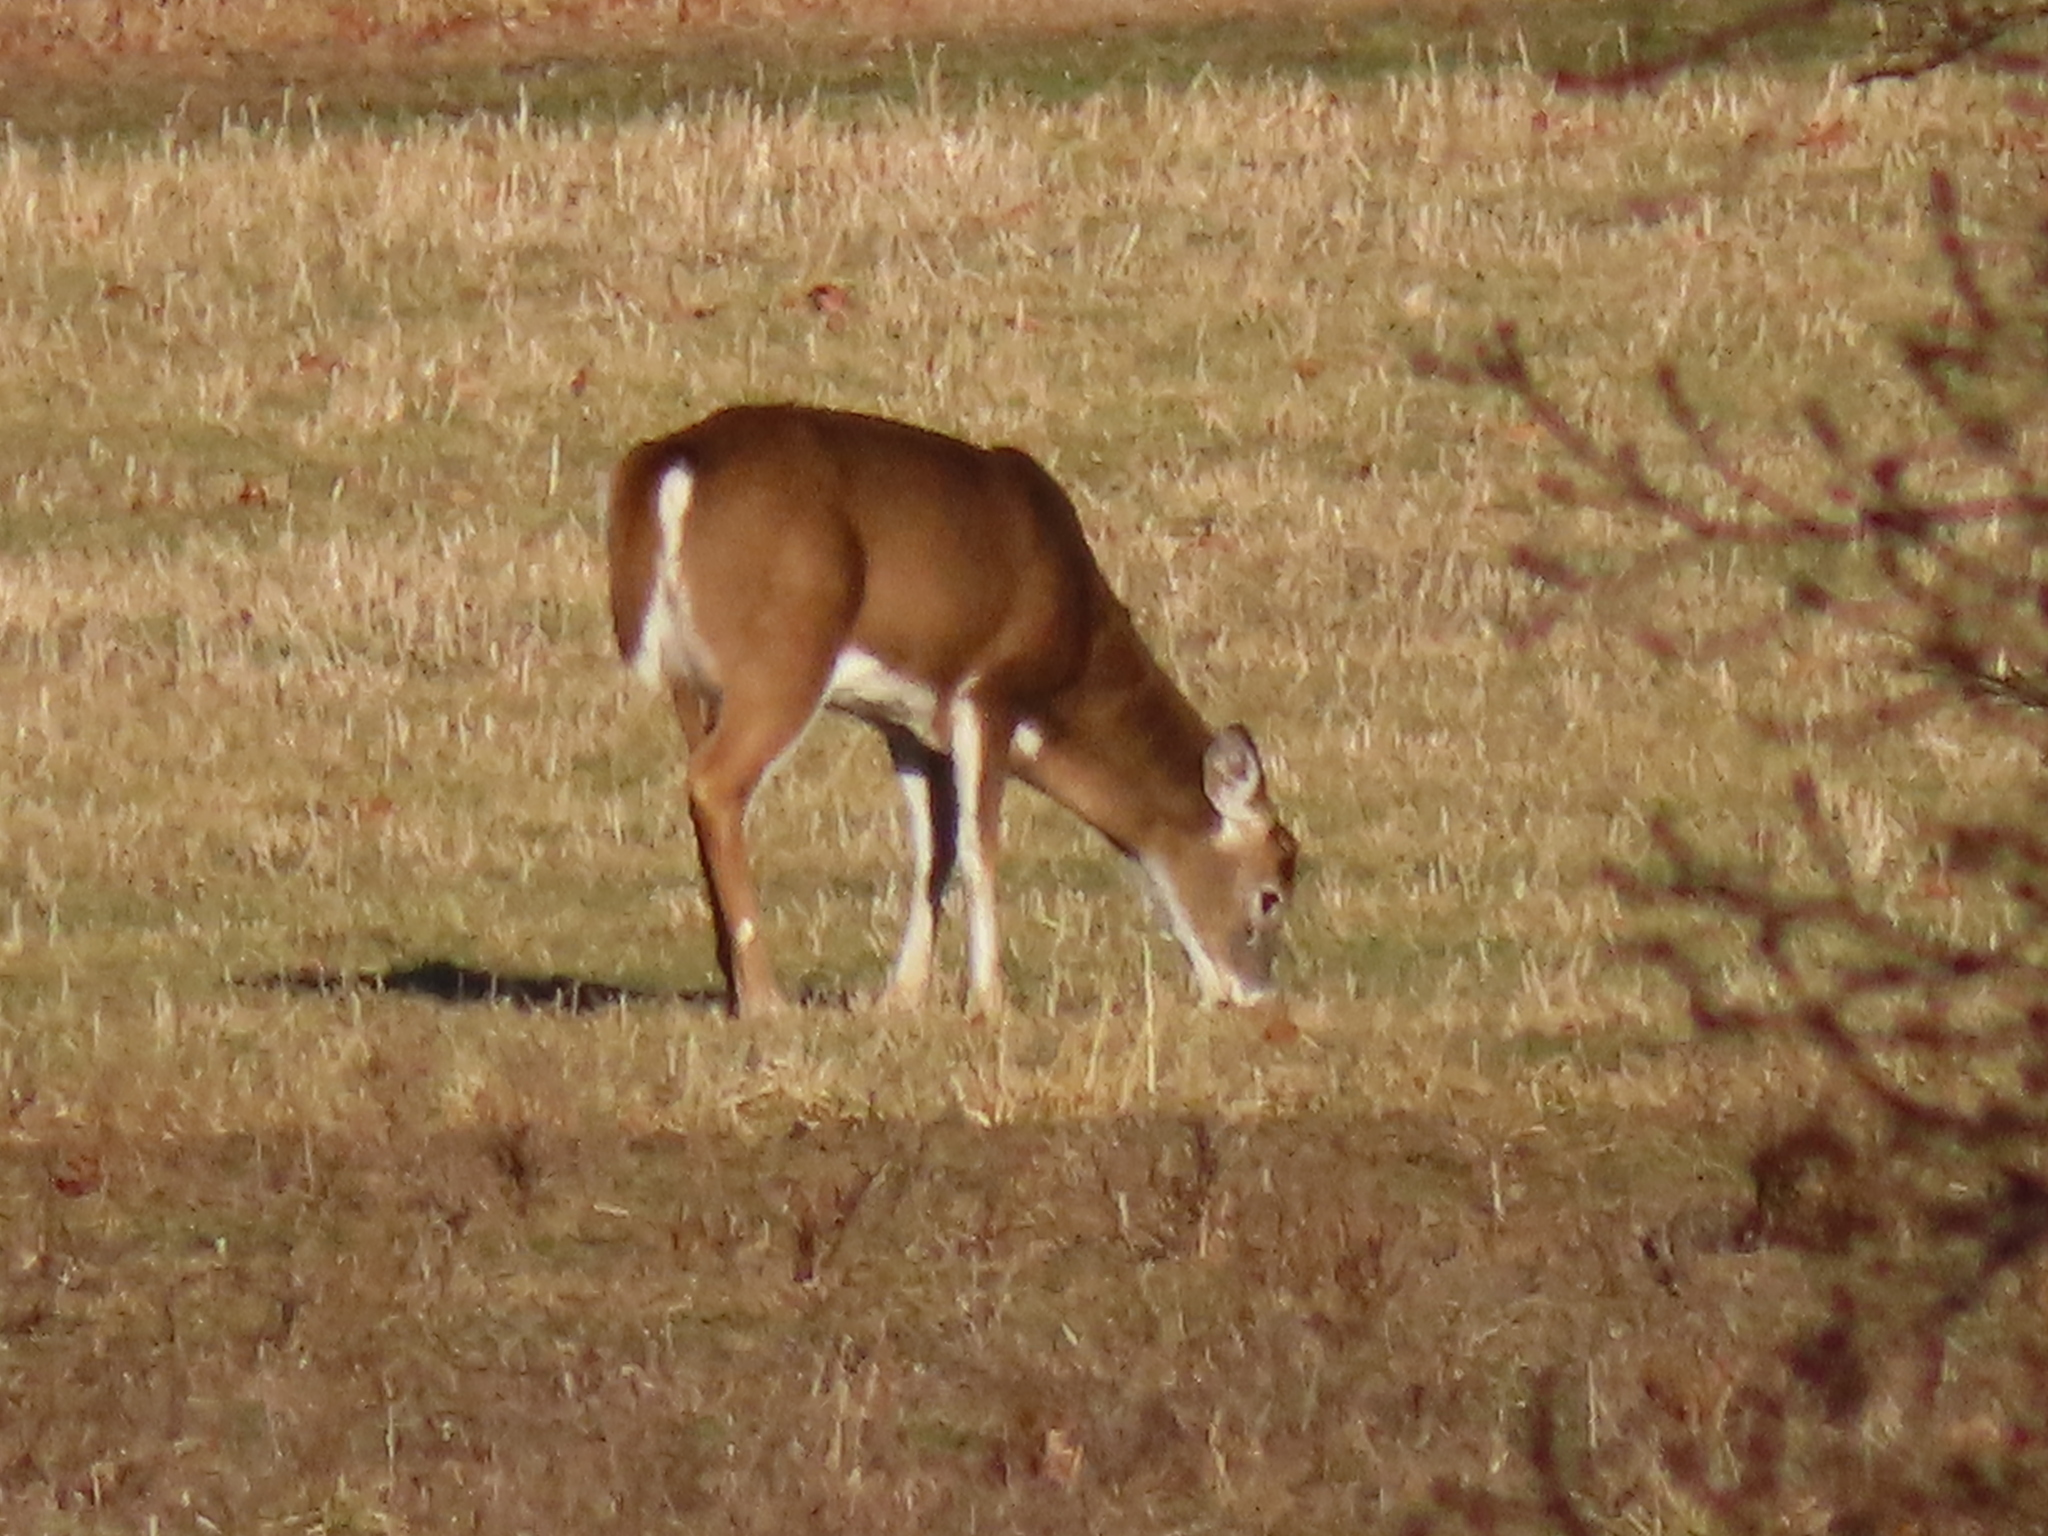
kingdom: Animalia
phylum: Chordata
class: Mammalia
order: Artiodactyla
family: Cervidae
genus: Odocoileus
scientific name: Odocoileus virginianus
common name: White-tailed deer
